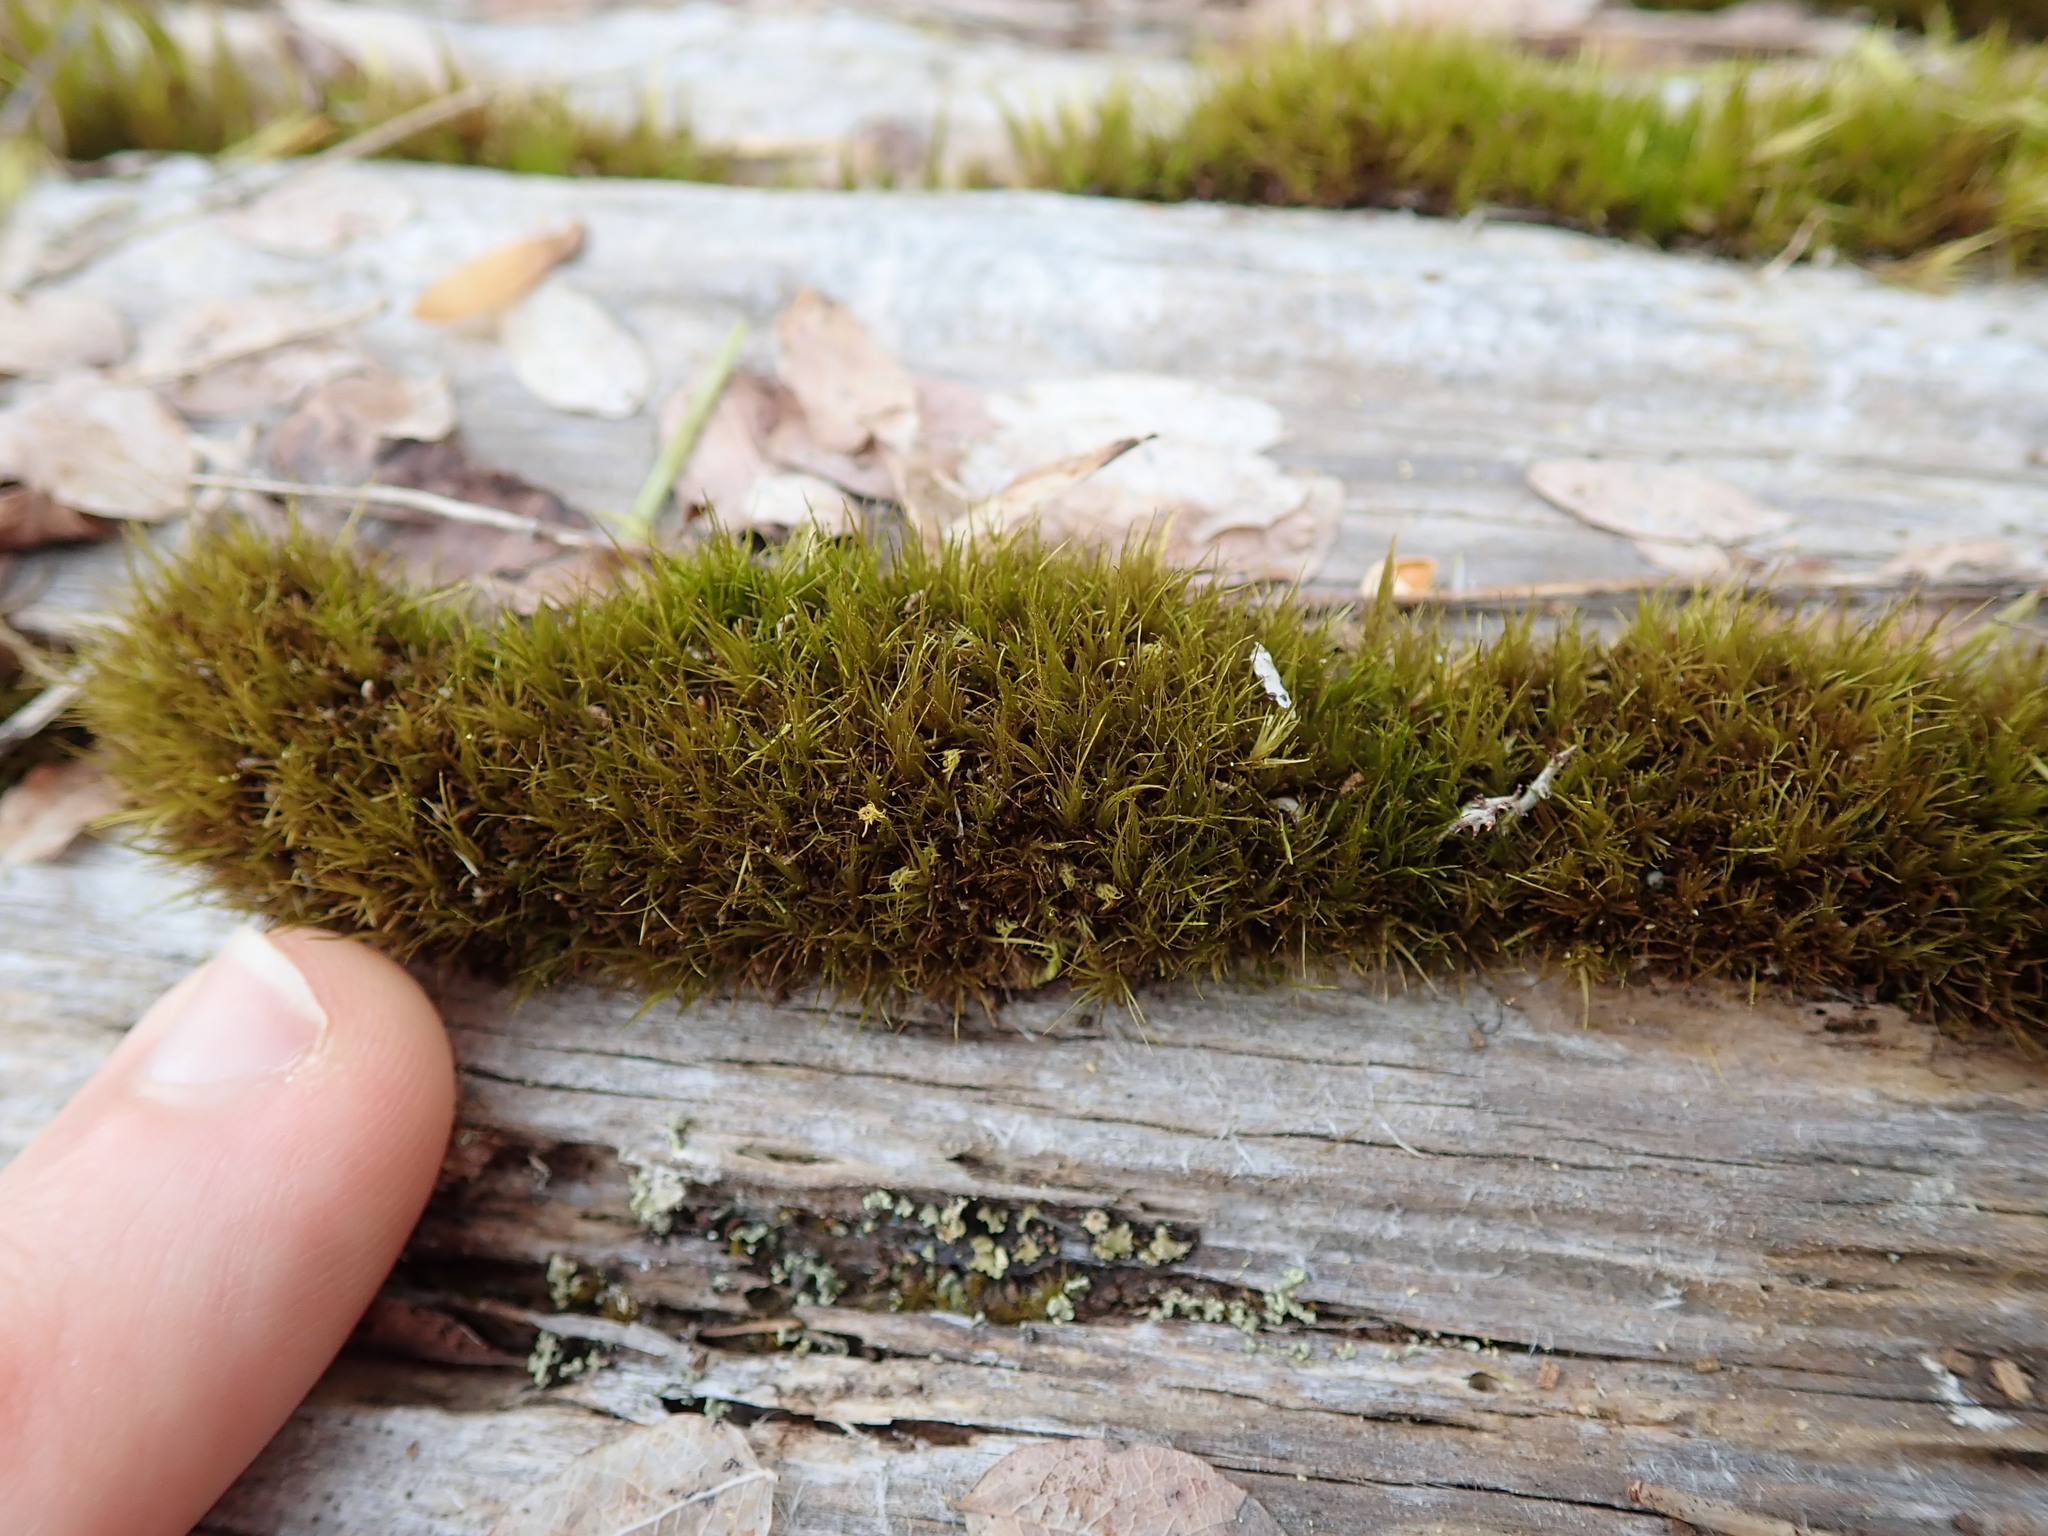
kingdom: Plantae
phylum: Bryophyta
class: Bryopsida
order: Dicranales
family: Dicranaceae
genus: Orthodicranum
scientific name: Orthodicranum tauricum
